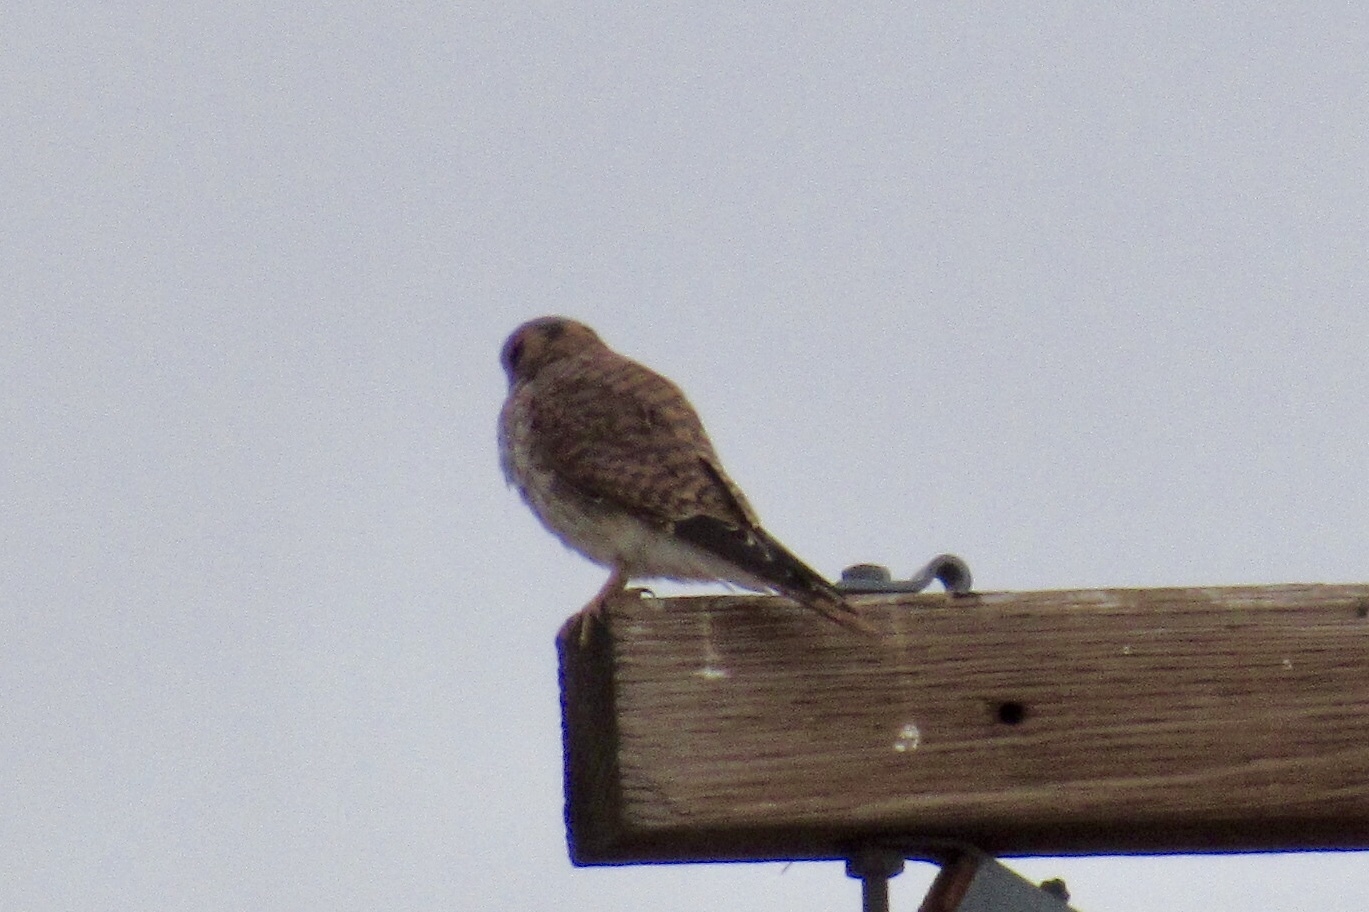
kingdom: Animalia
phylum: Chordata
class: Aves
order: Falconiformes
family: Falconidae
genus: Falco
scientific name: Falco sparverius
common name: American kestrel
